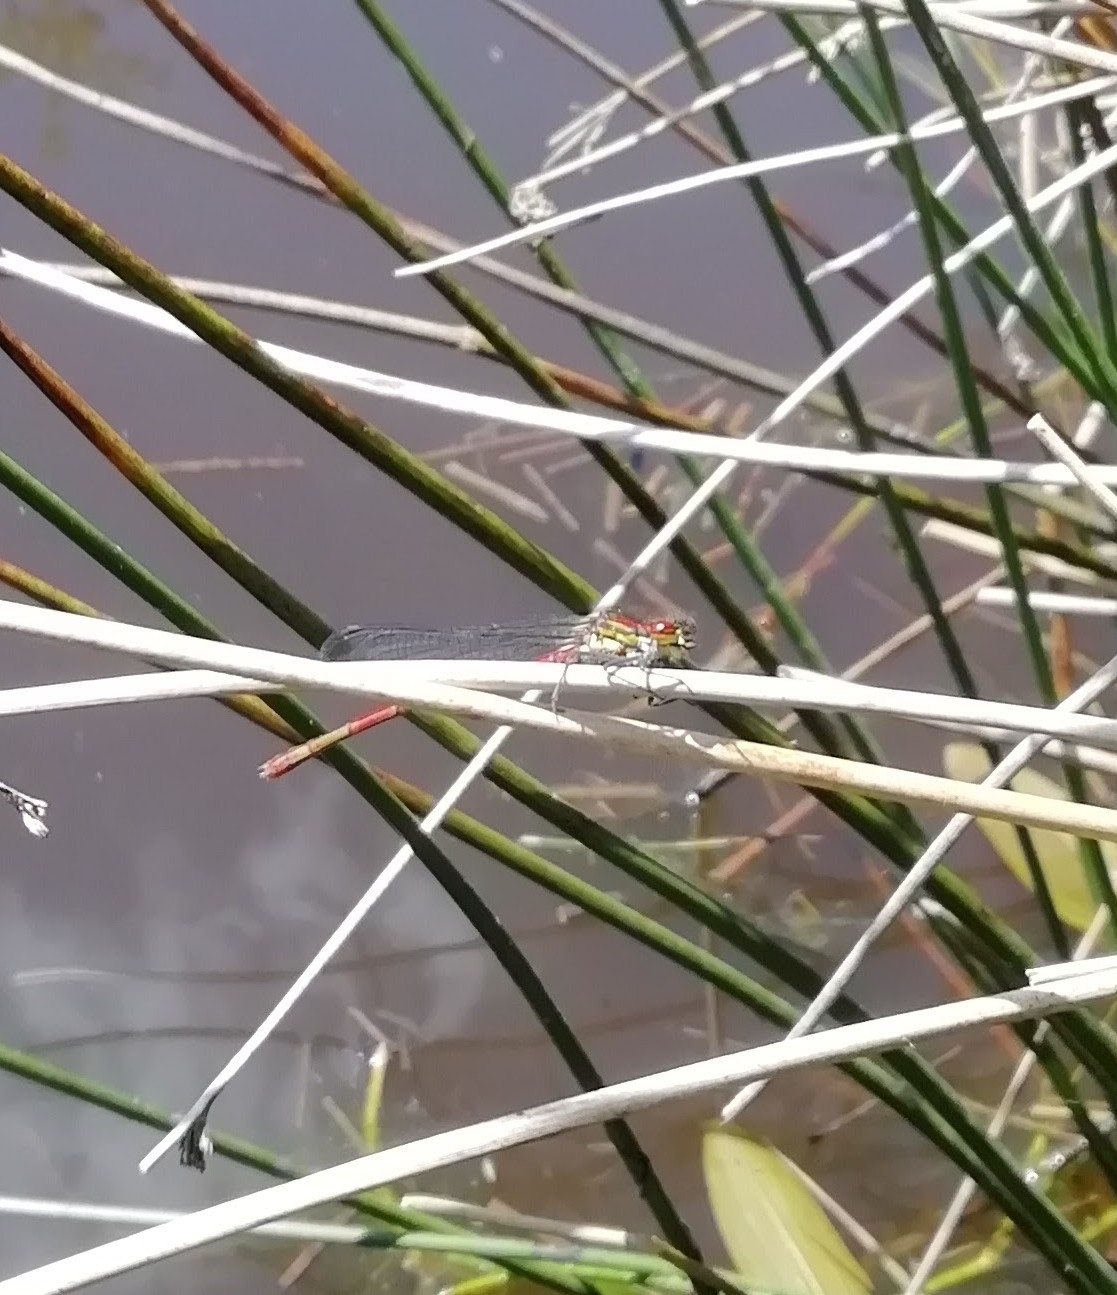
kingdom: Animalia
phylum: Arthropoda
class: Insecta
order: Odonata
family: Coenagrionidae
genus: Pyrrhosoma
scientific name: Pyrrhosoma nymphula
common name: Large red damsel
